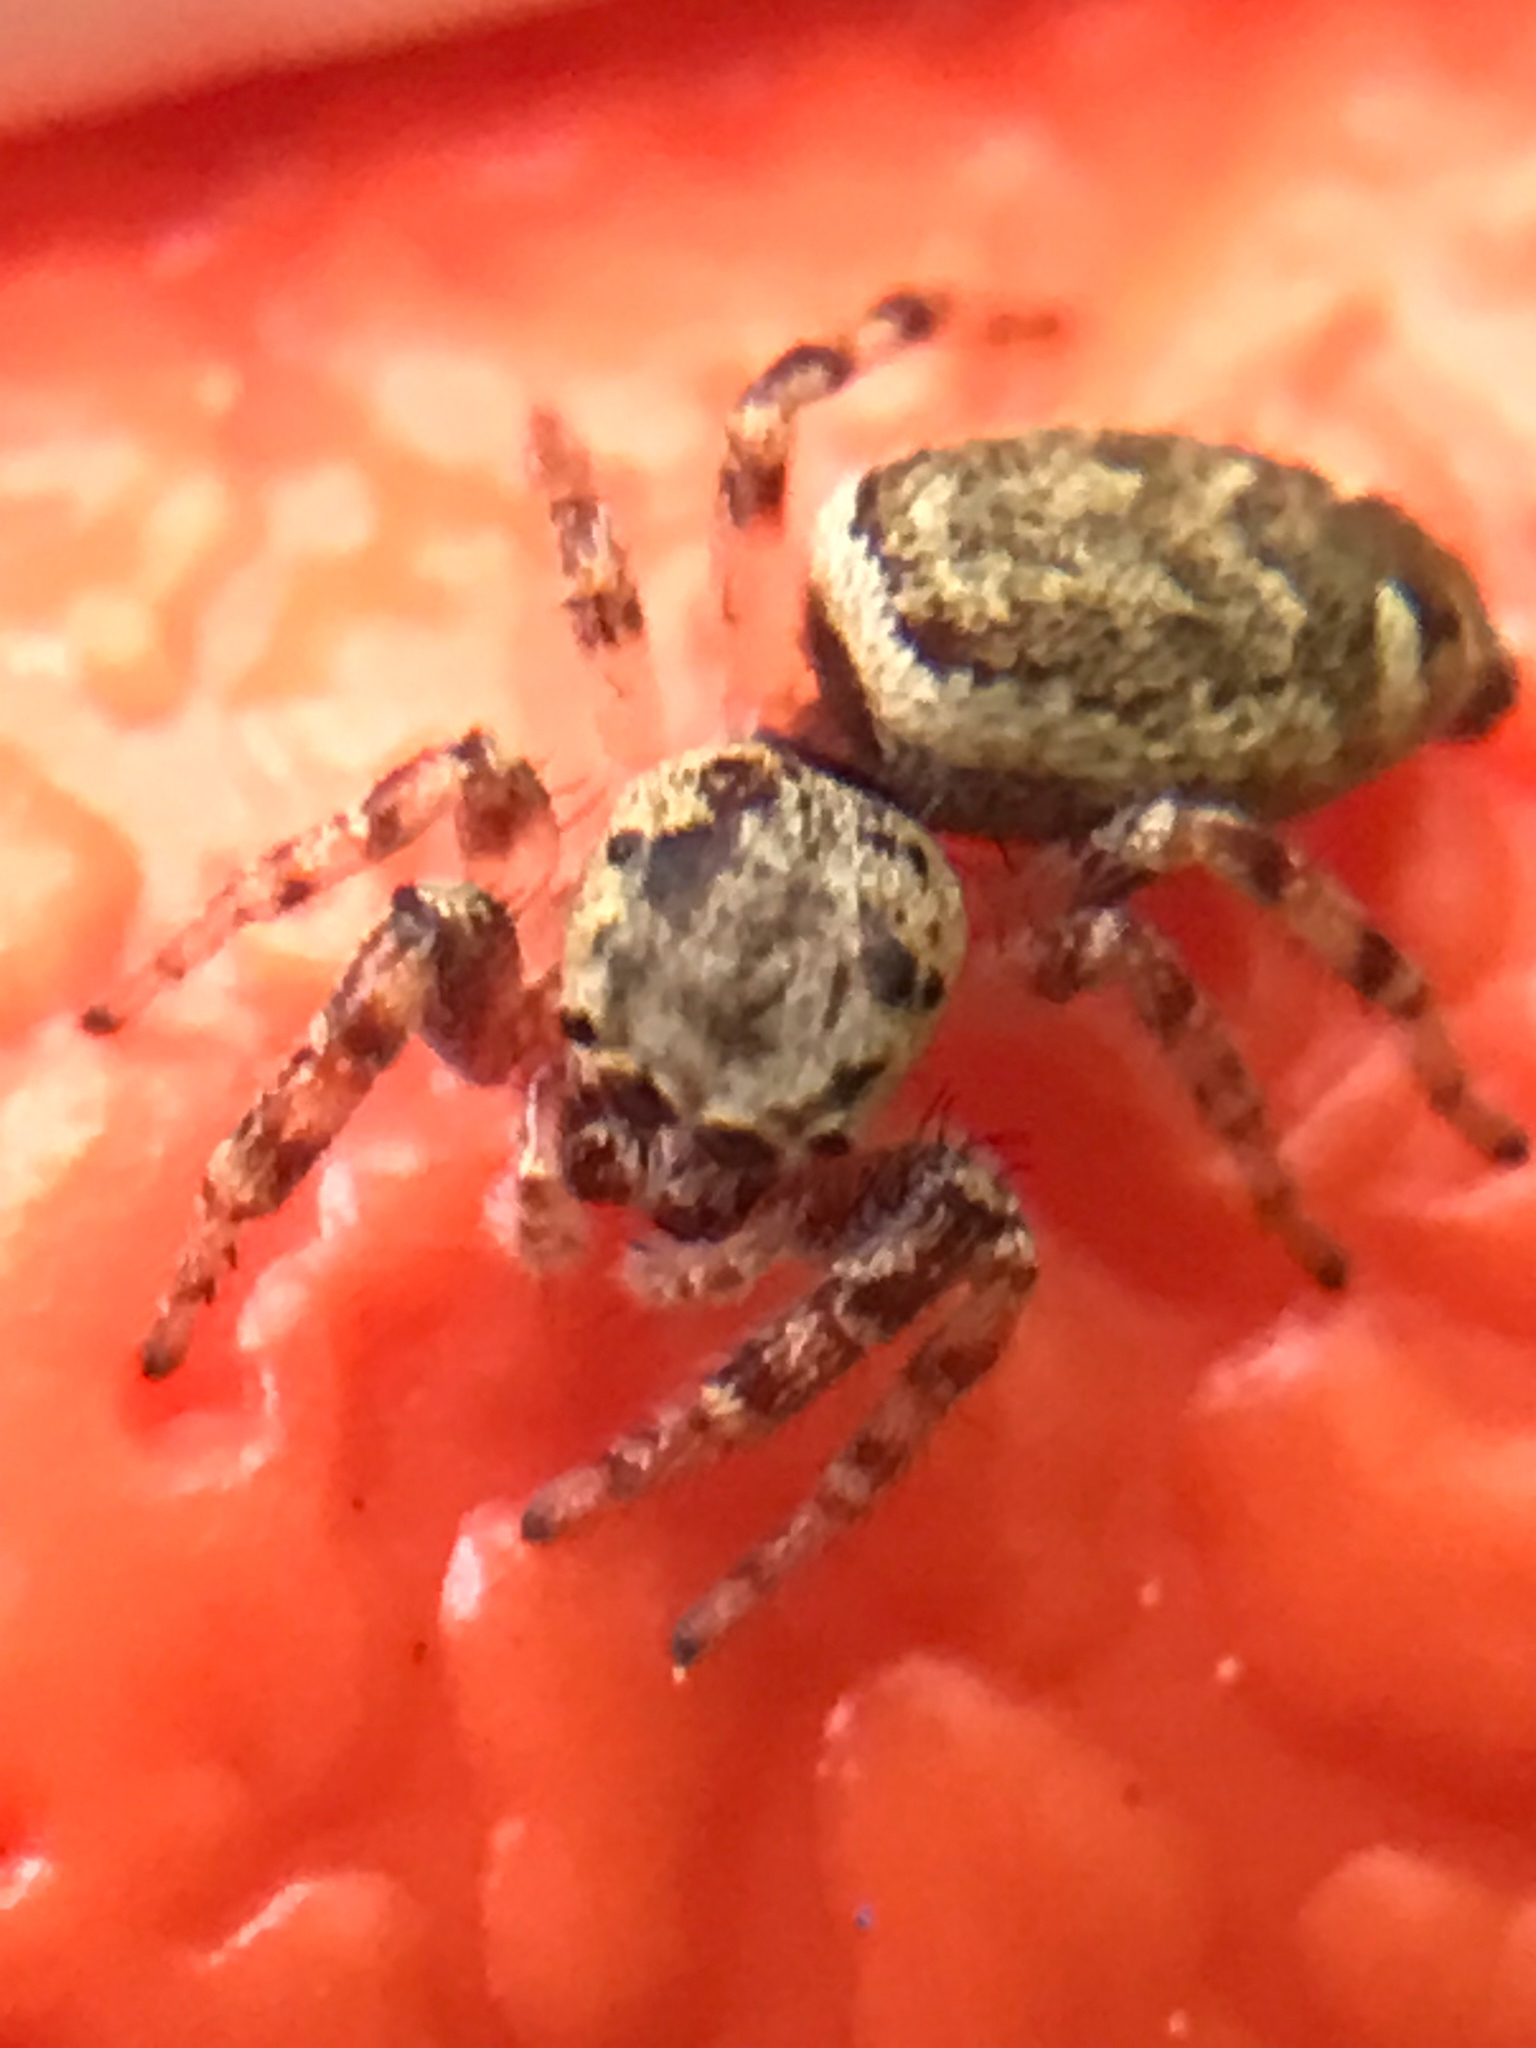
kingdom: Animalia
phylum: Arthropoda
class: Arachnida
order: Araneae
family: Salticidae
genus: Pelegrina
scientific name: Pelegrina galathea
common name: Jumping spiders
